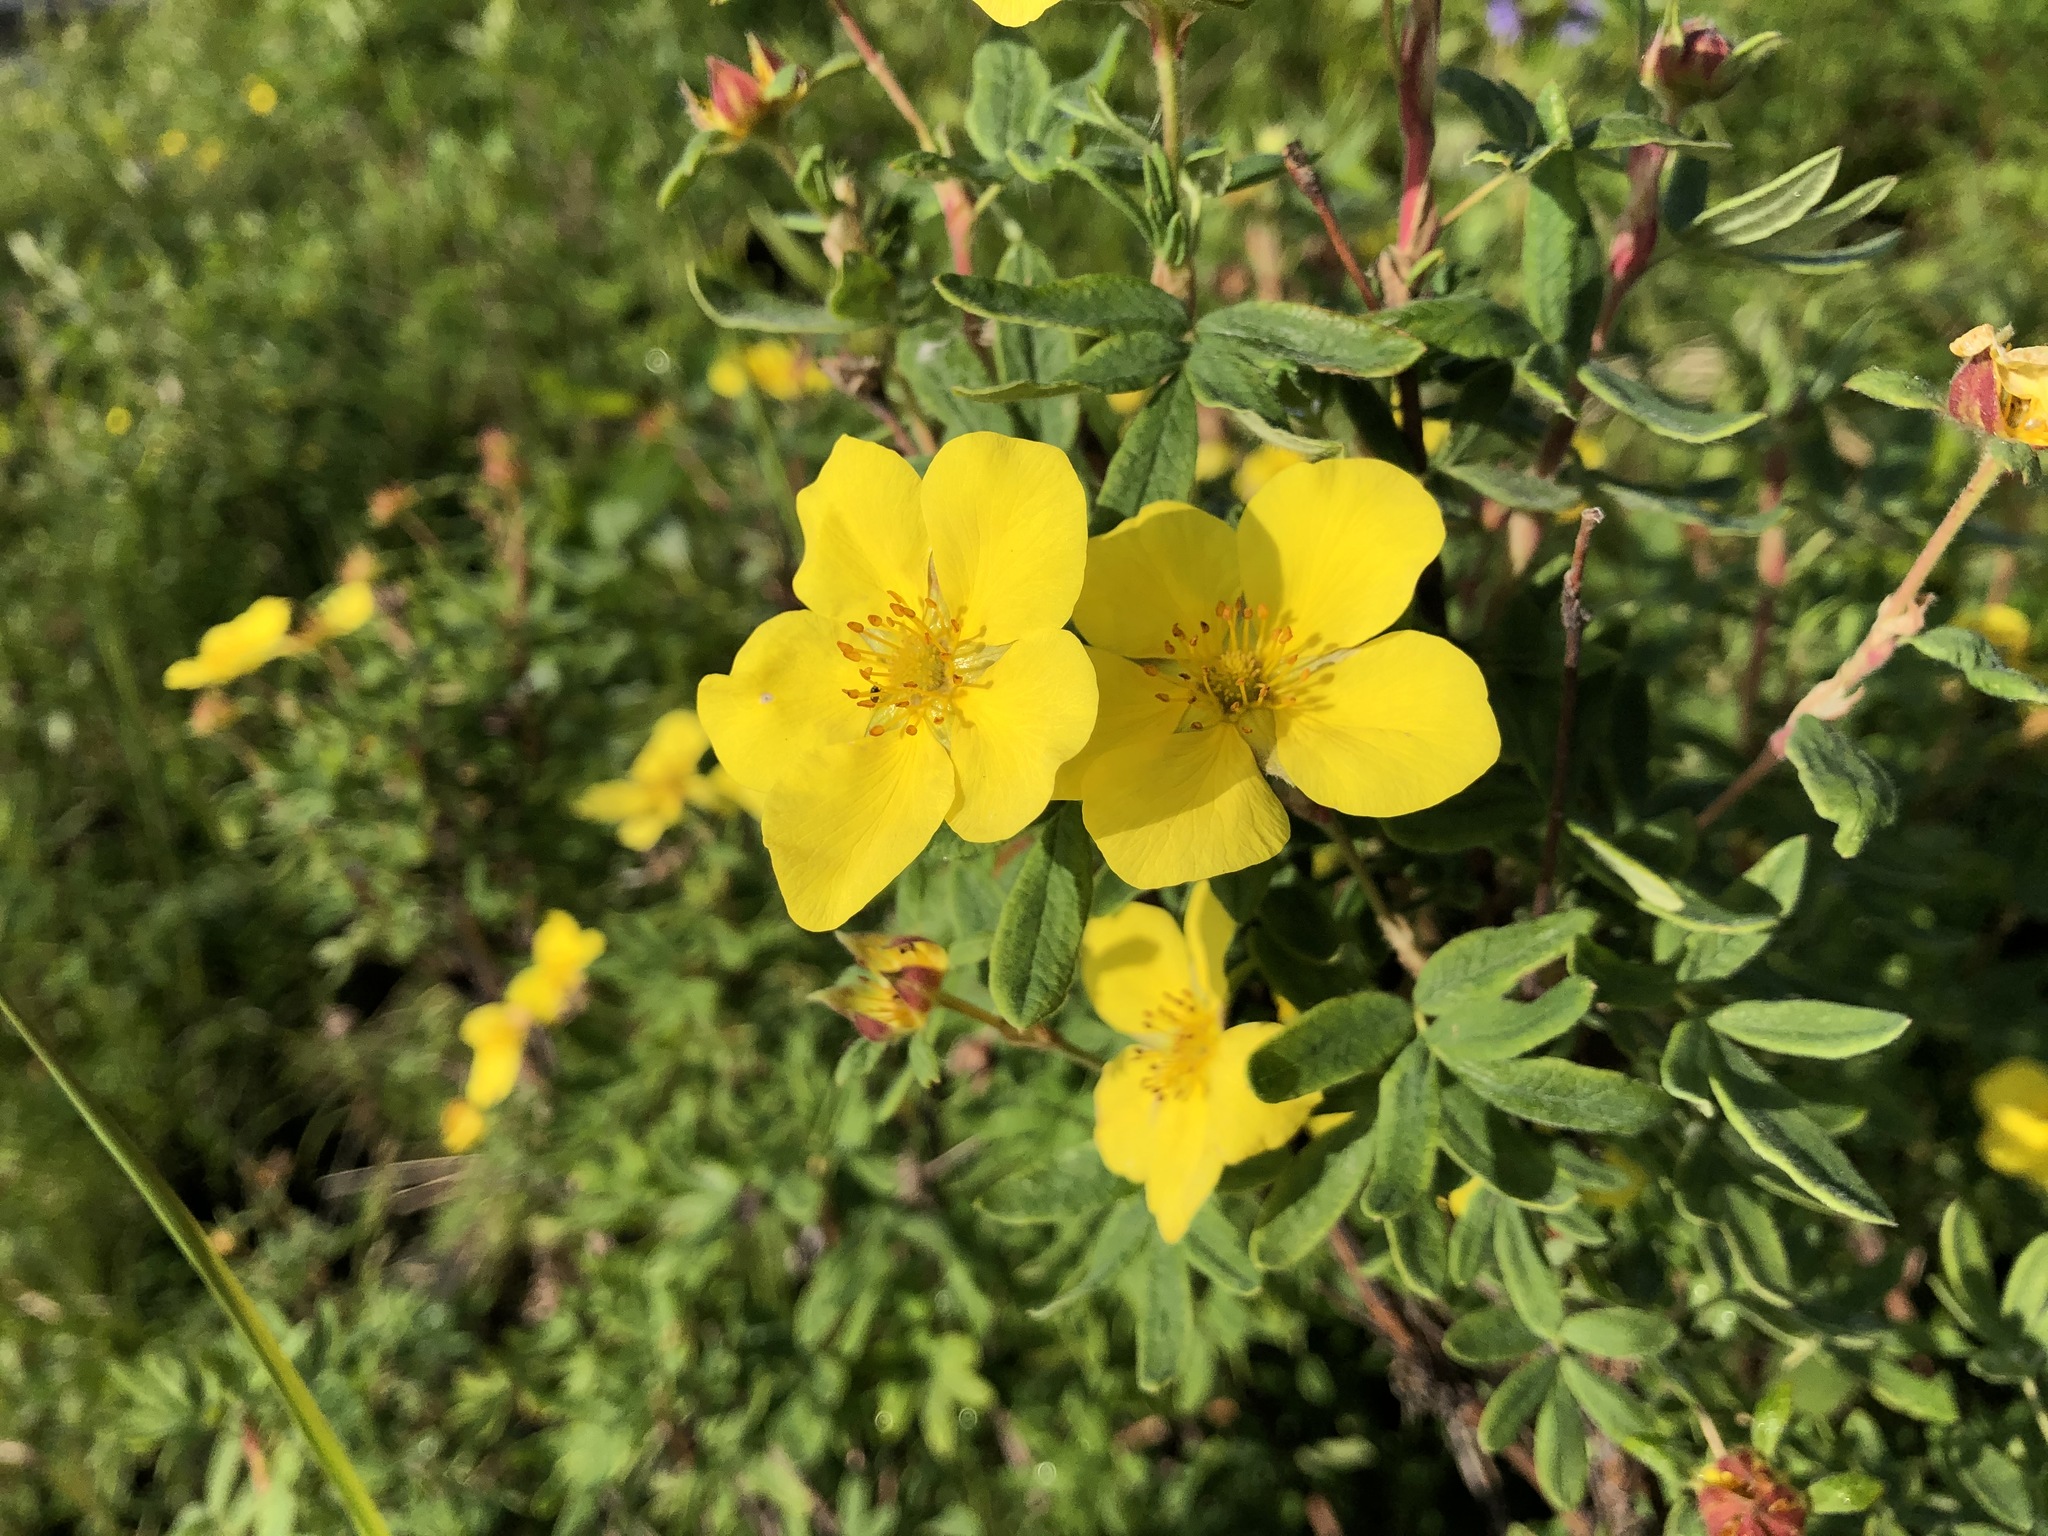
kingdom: Plantae
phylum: Tracheophyta
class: Magnoliopsida
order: Rosales
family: Rosaceae
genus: Dasiphora
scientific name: Dasiphora fruticosa
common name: Shrubby cinquefoil
